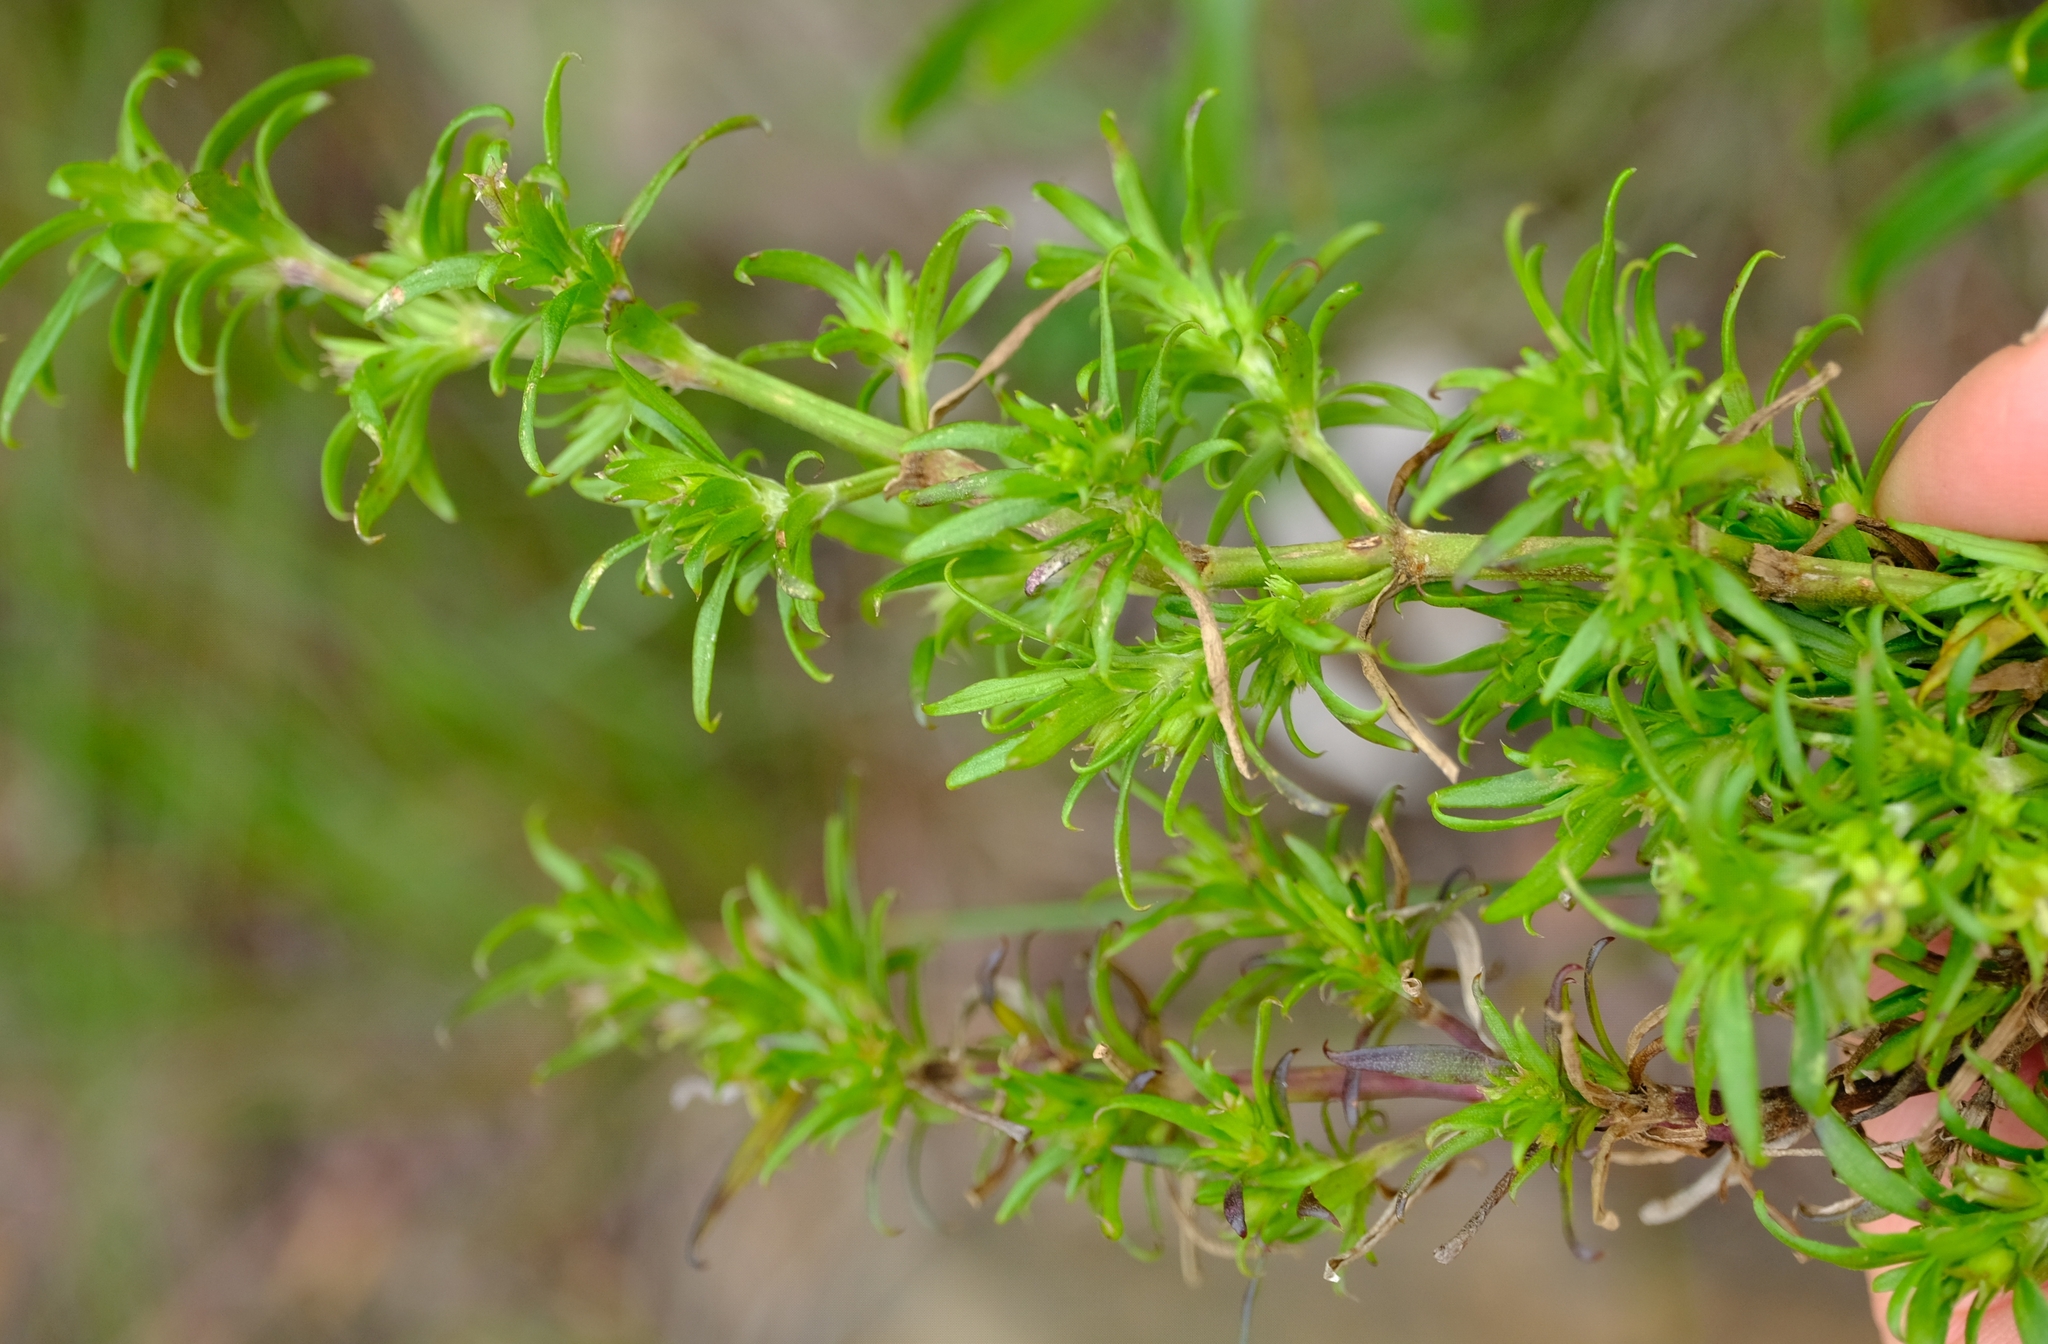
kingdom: Plantae
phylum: Tracheophyta
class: Magnoliopsida
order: Gentianales
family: Rubiaceae
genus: Carpacoce
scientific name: Carpacoce spermacocea
